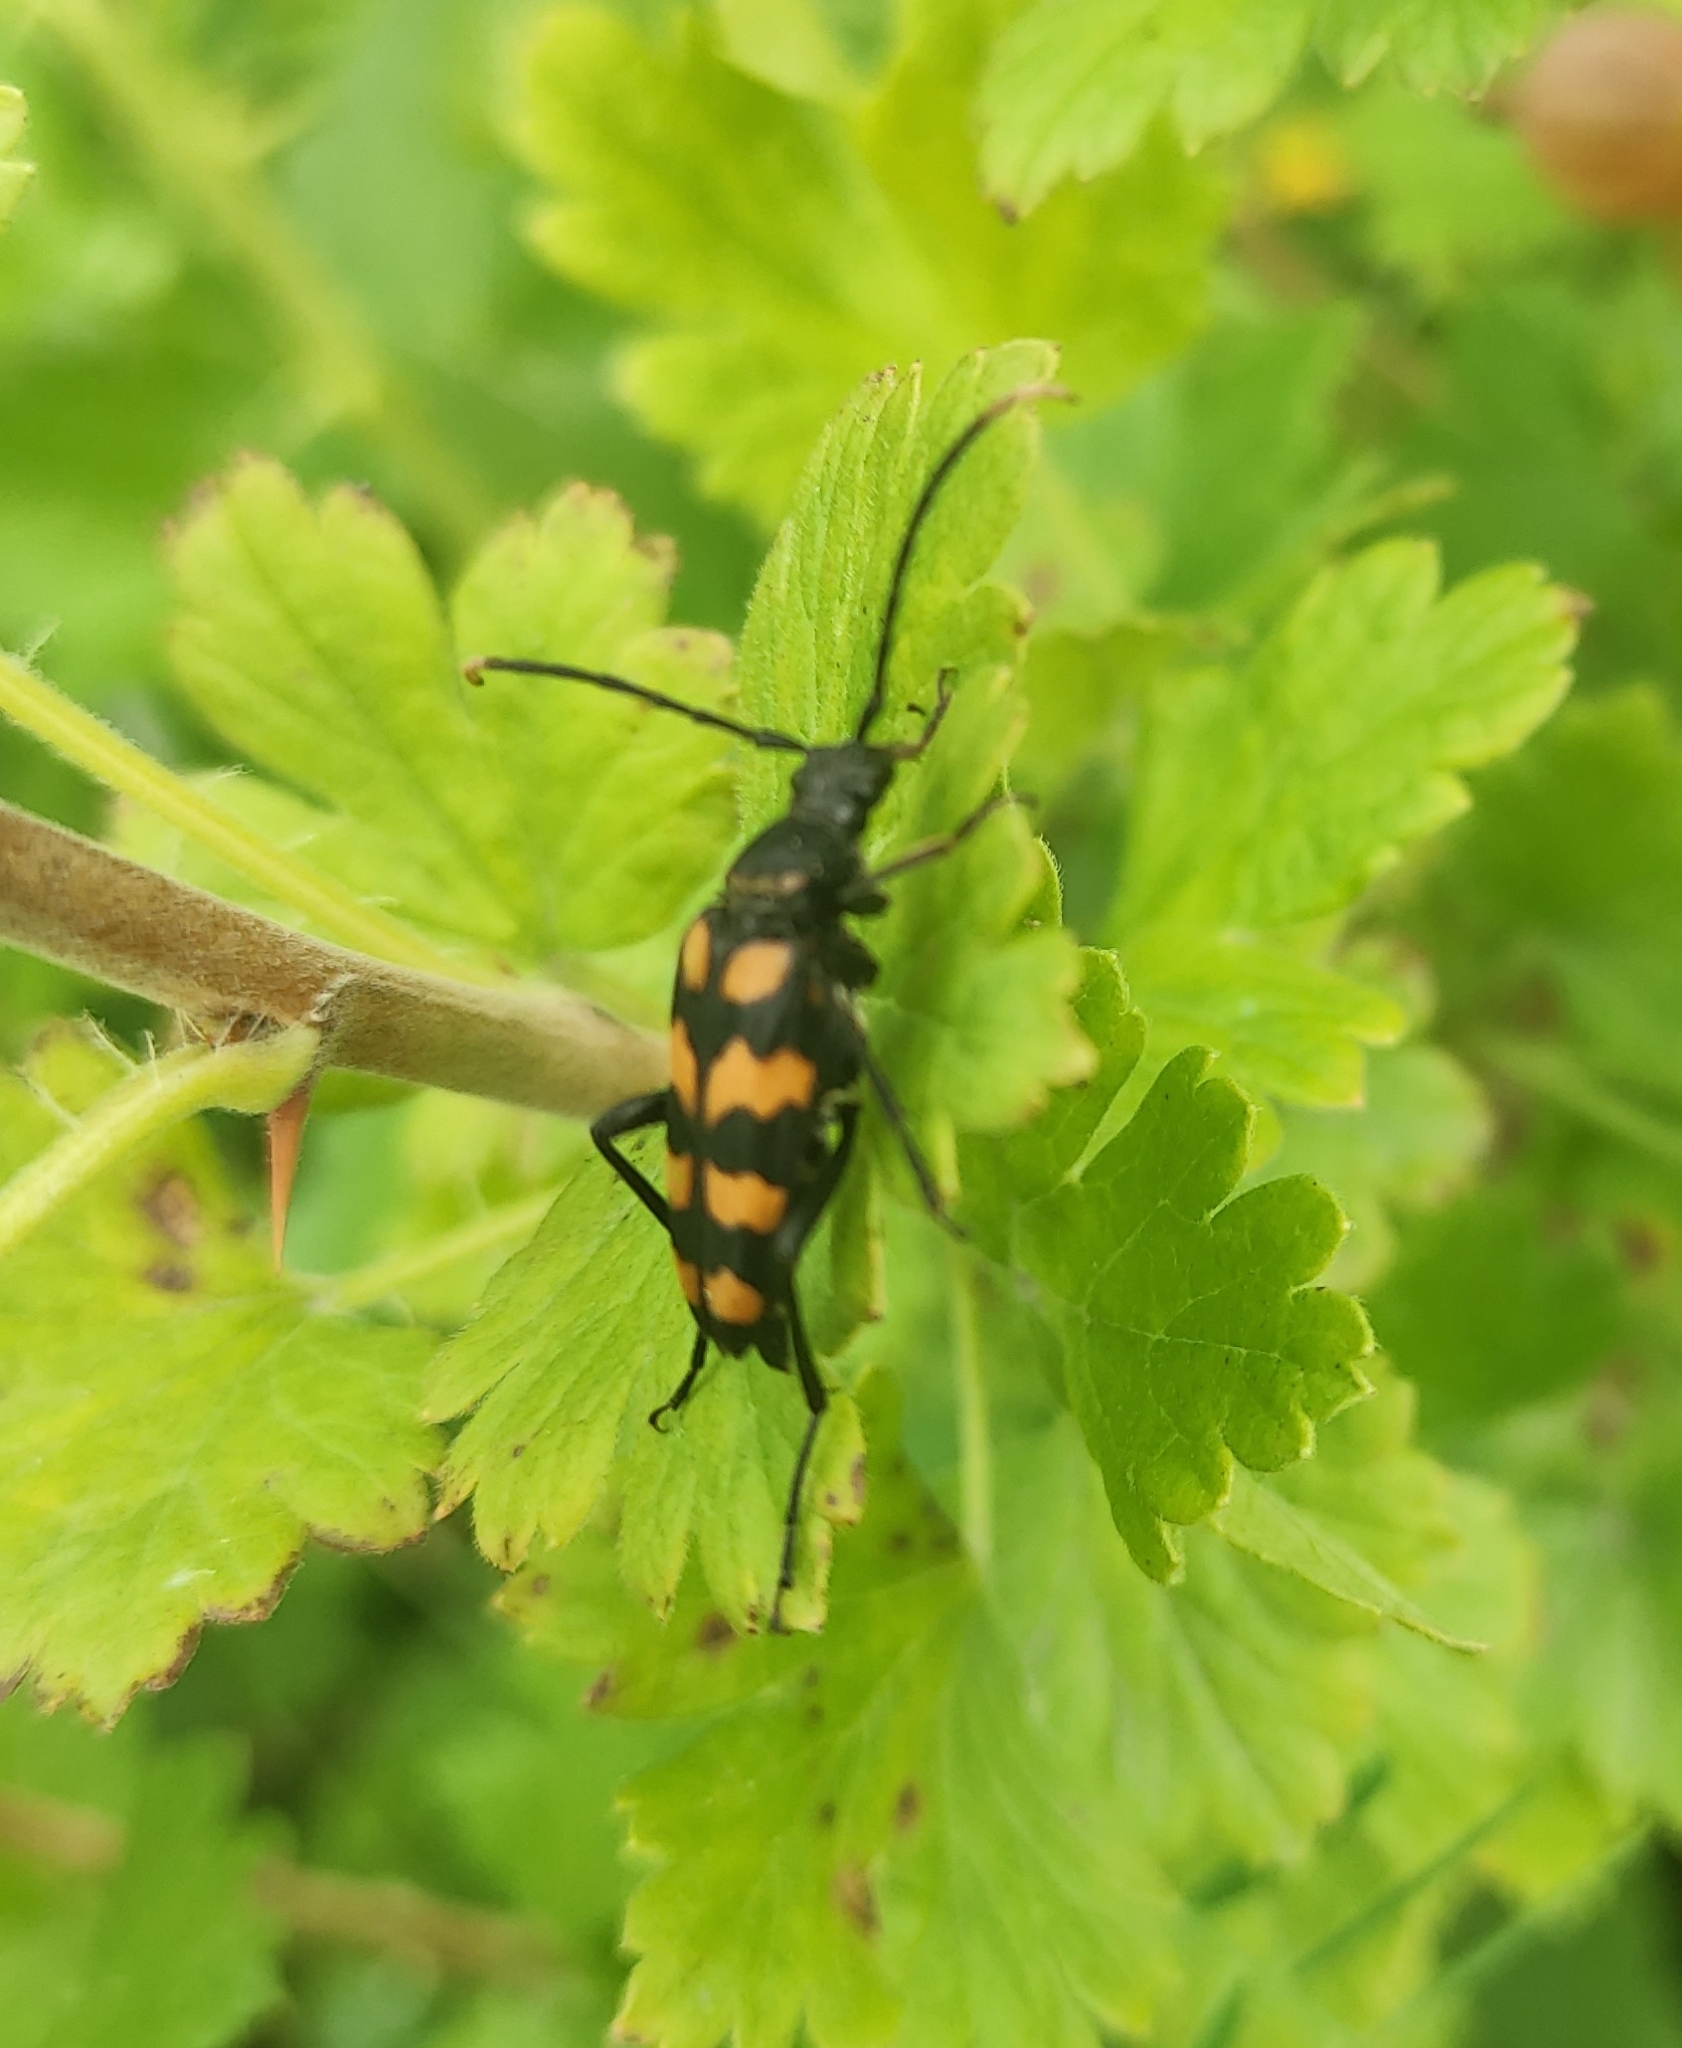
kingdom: Animalia
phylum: Arthropoda
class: Insecta
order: Coleoptera
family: Cerambycidae
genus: Leptura
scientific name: Leptura quadrifasciata
